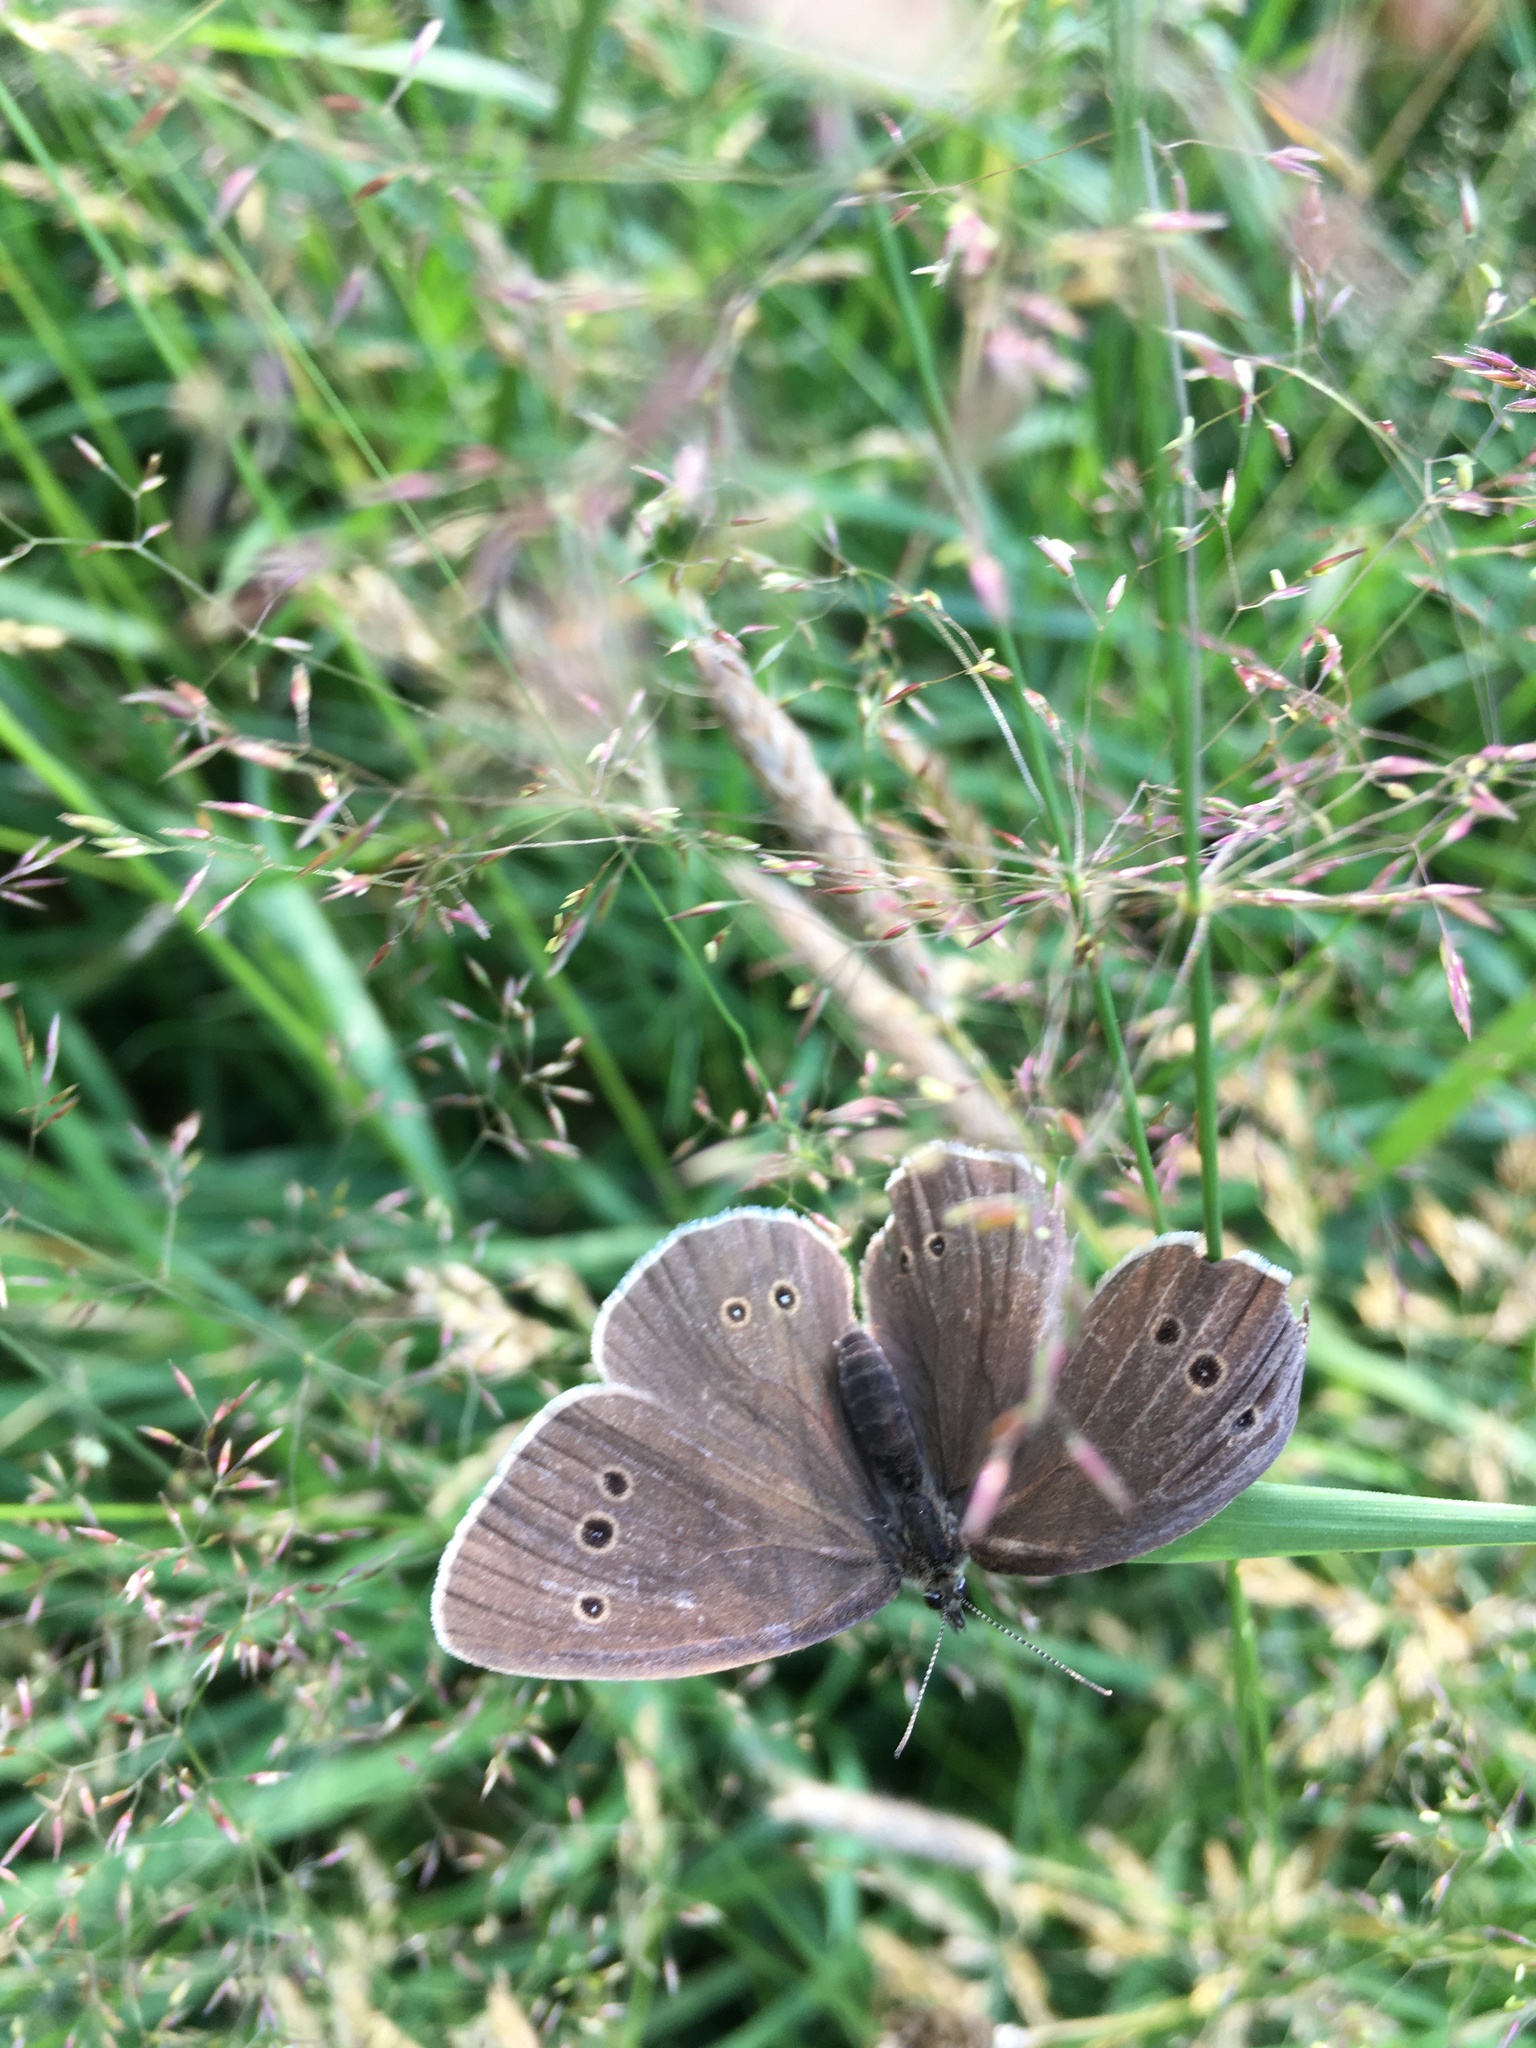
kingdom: Animalia
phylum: Arthropoda
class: Insecta
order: Lepidoptera
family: Nymphalidae
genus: Aphantopus
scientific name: Aphantopus hyperantus
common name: Ringlet
